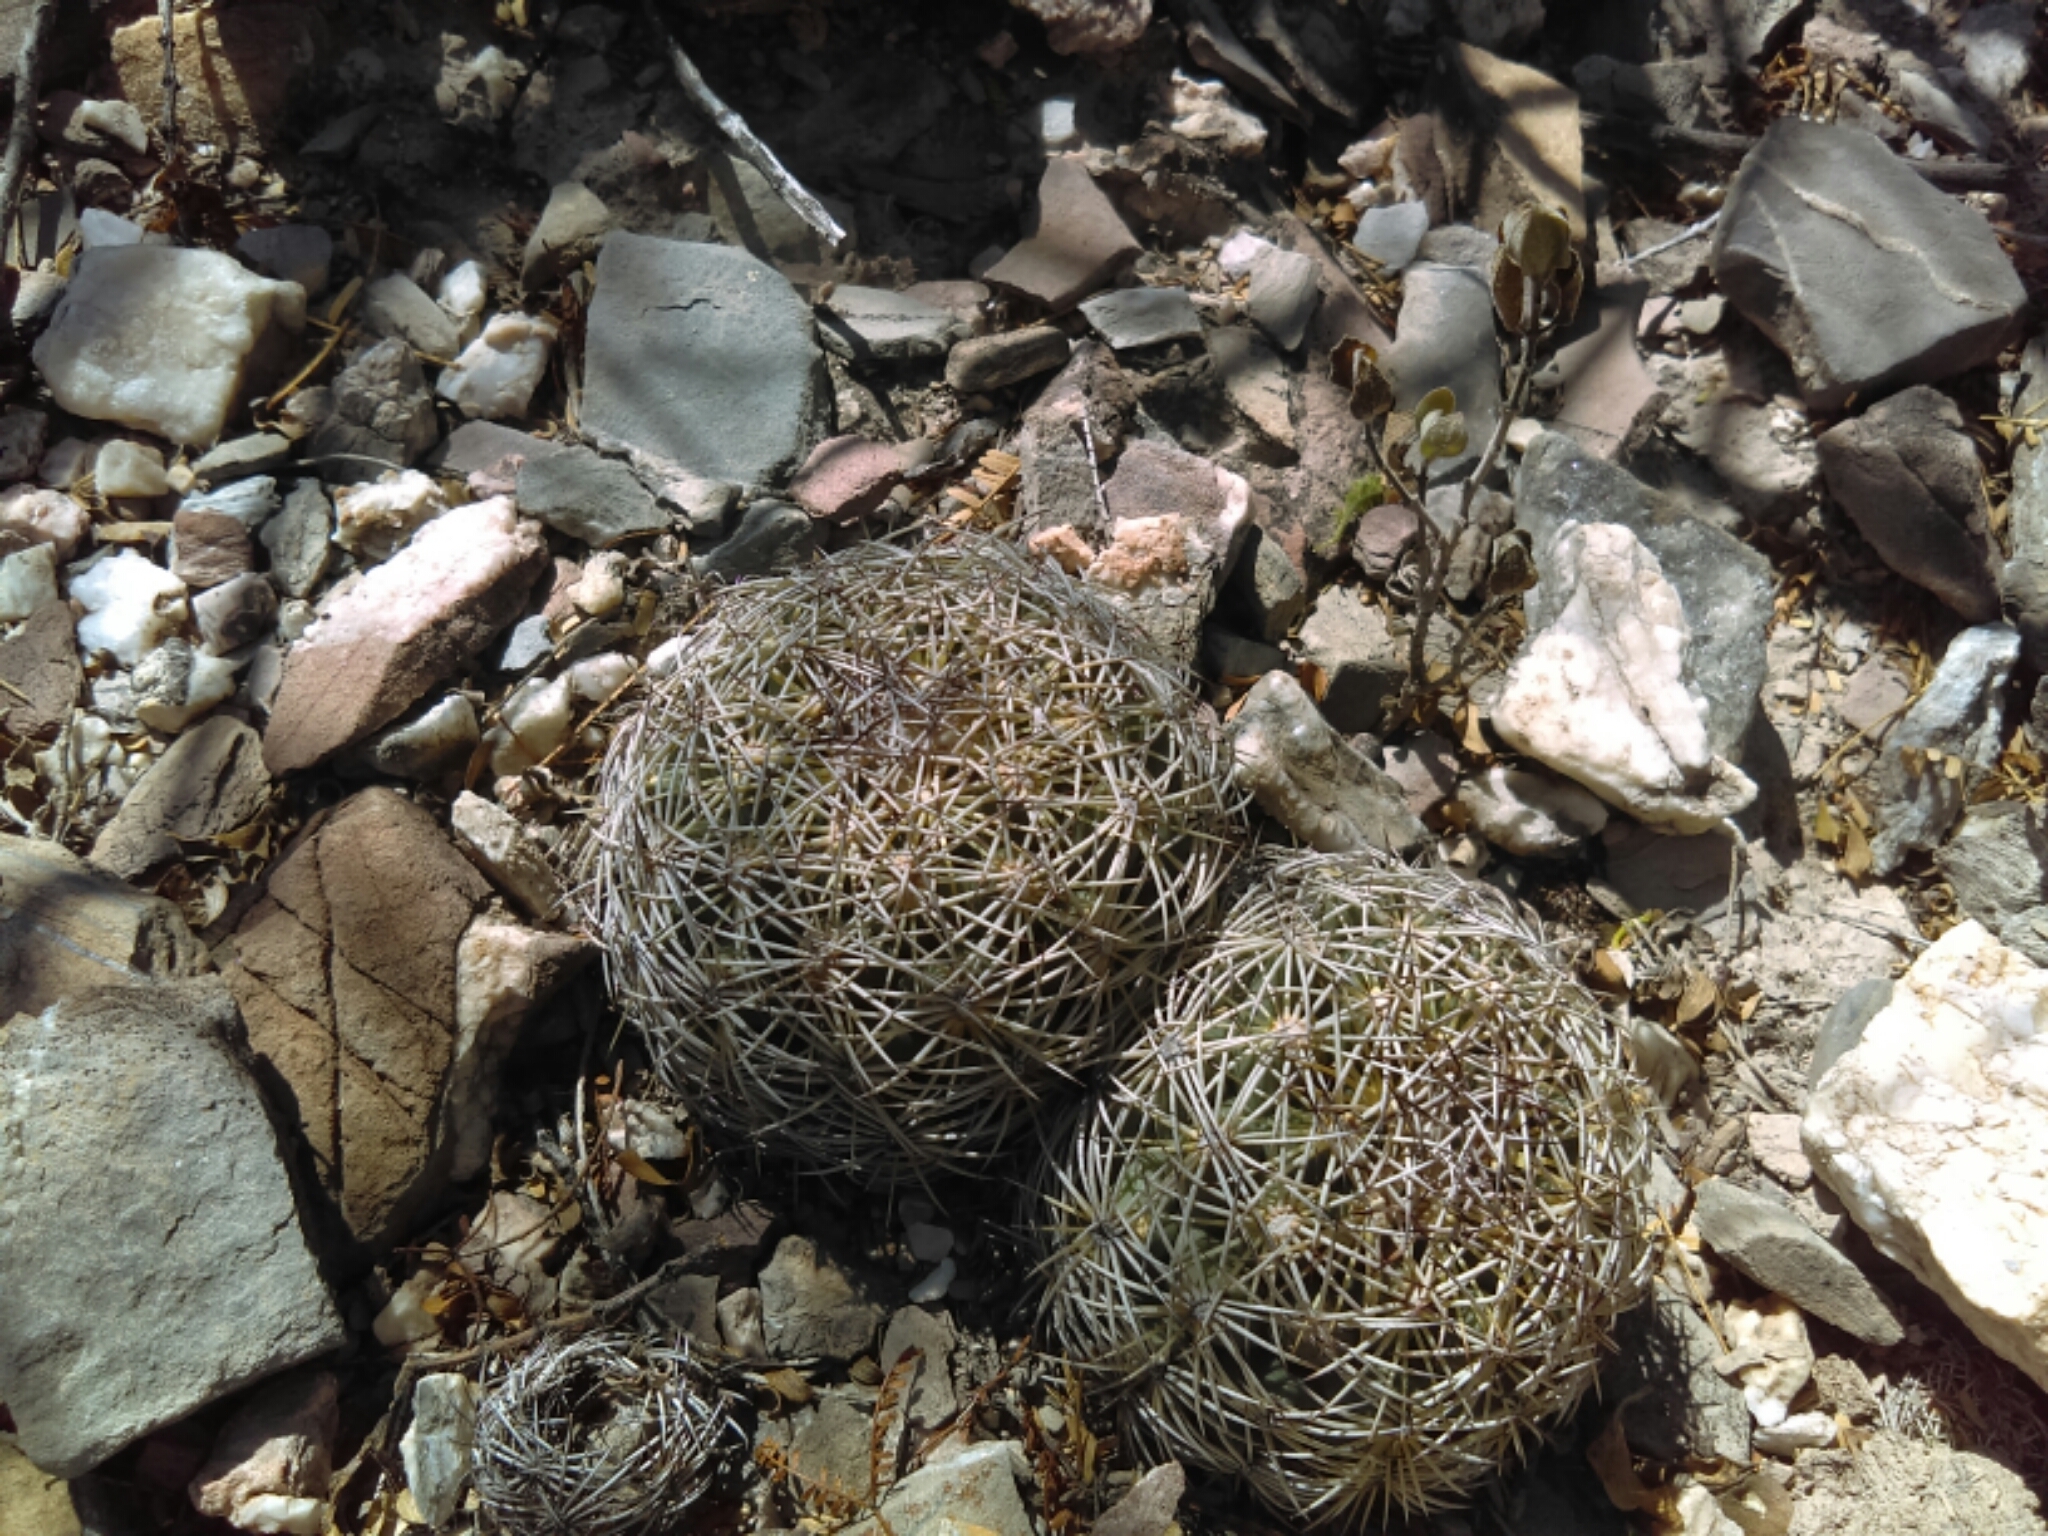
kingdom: Plantae
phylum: Tracheophyta
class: Magnoliopsida
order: Caryophyllales
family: Cactaceae
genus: Coryphantha
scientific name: Coryphantha cornifera
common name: Rhinoceros cactus
